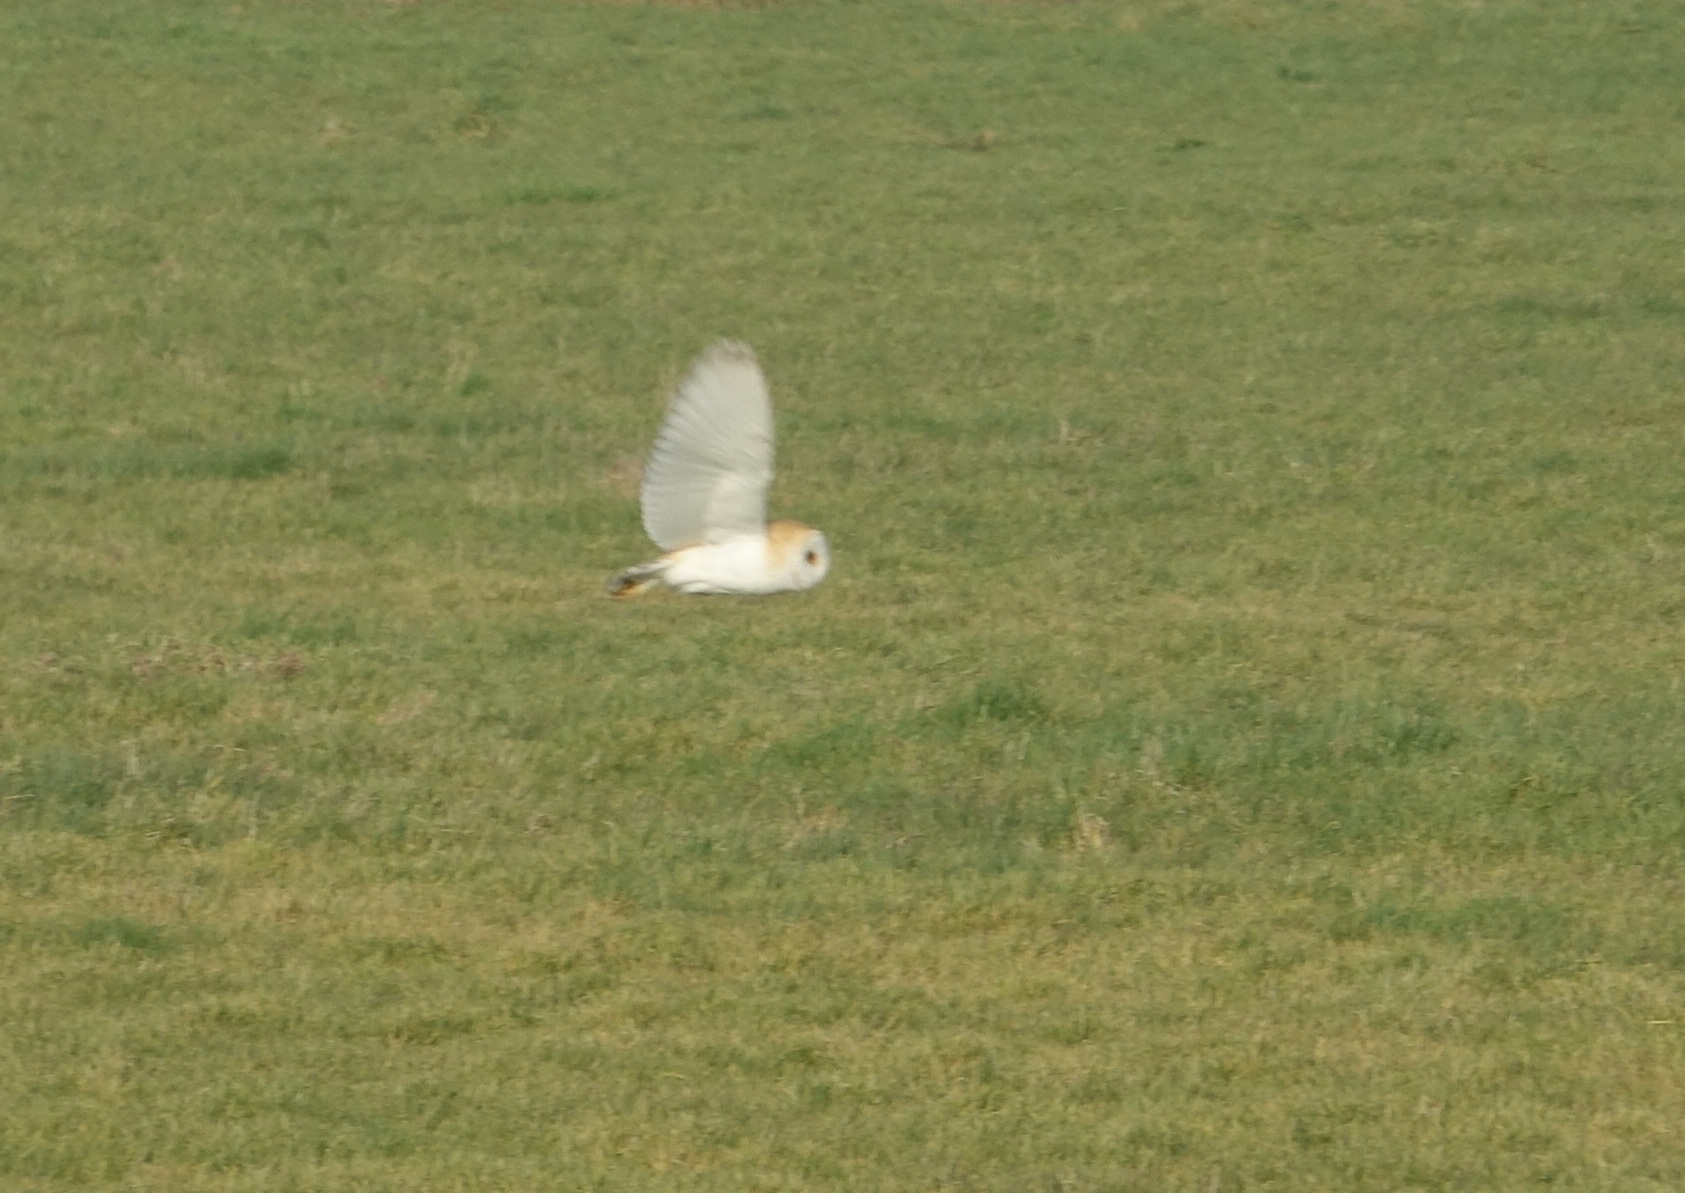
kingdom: Animalia
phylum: Chordata
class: Aves
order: Strigiformes
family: Tytonidae
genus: Tyto
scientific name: Tyto alba
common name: Barn owl
